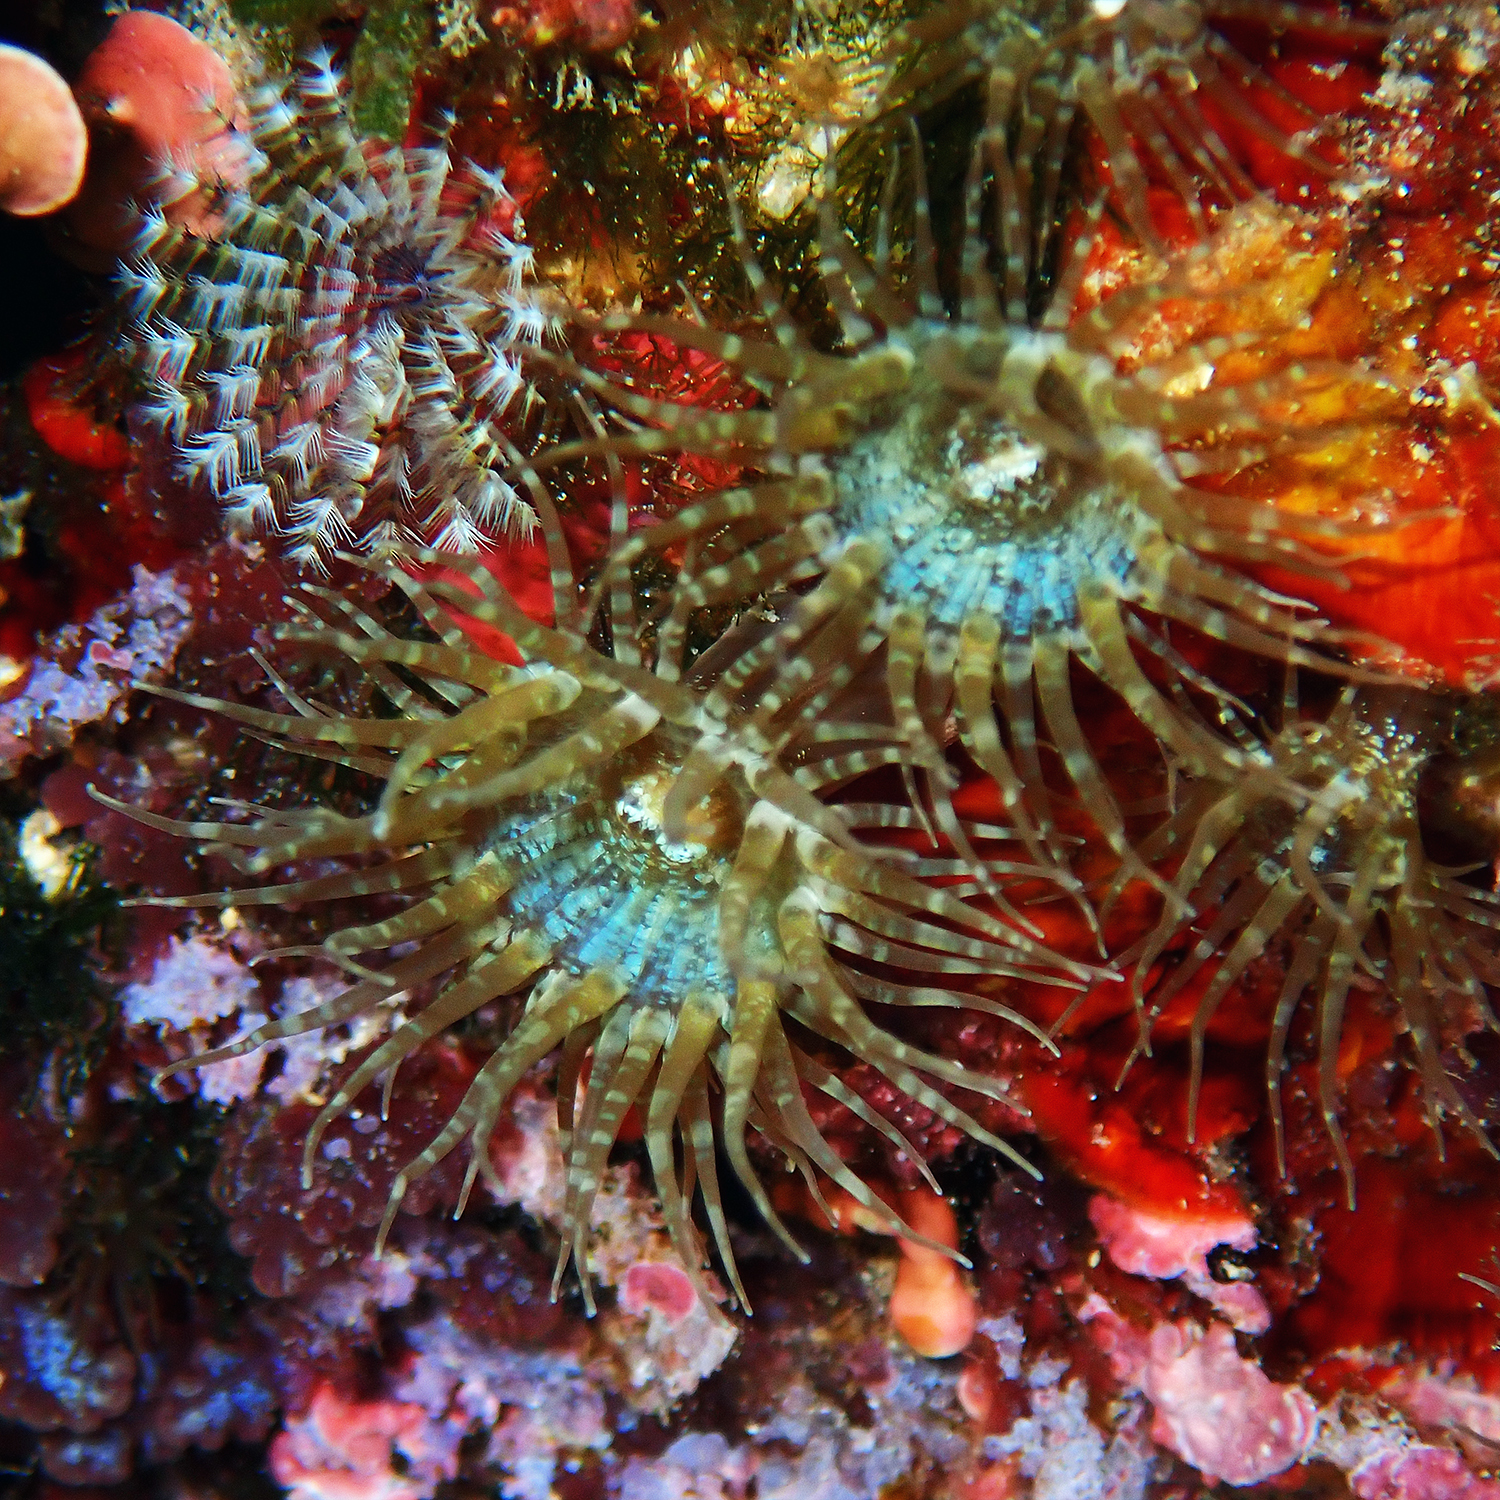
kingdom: Animalia
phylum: Cnidaria
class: Anthozoa
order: Actiniaria
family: Aiptasiidae
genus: Exaiptasia
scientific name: Exaiptasia diaphana
